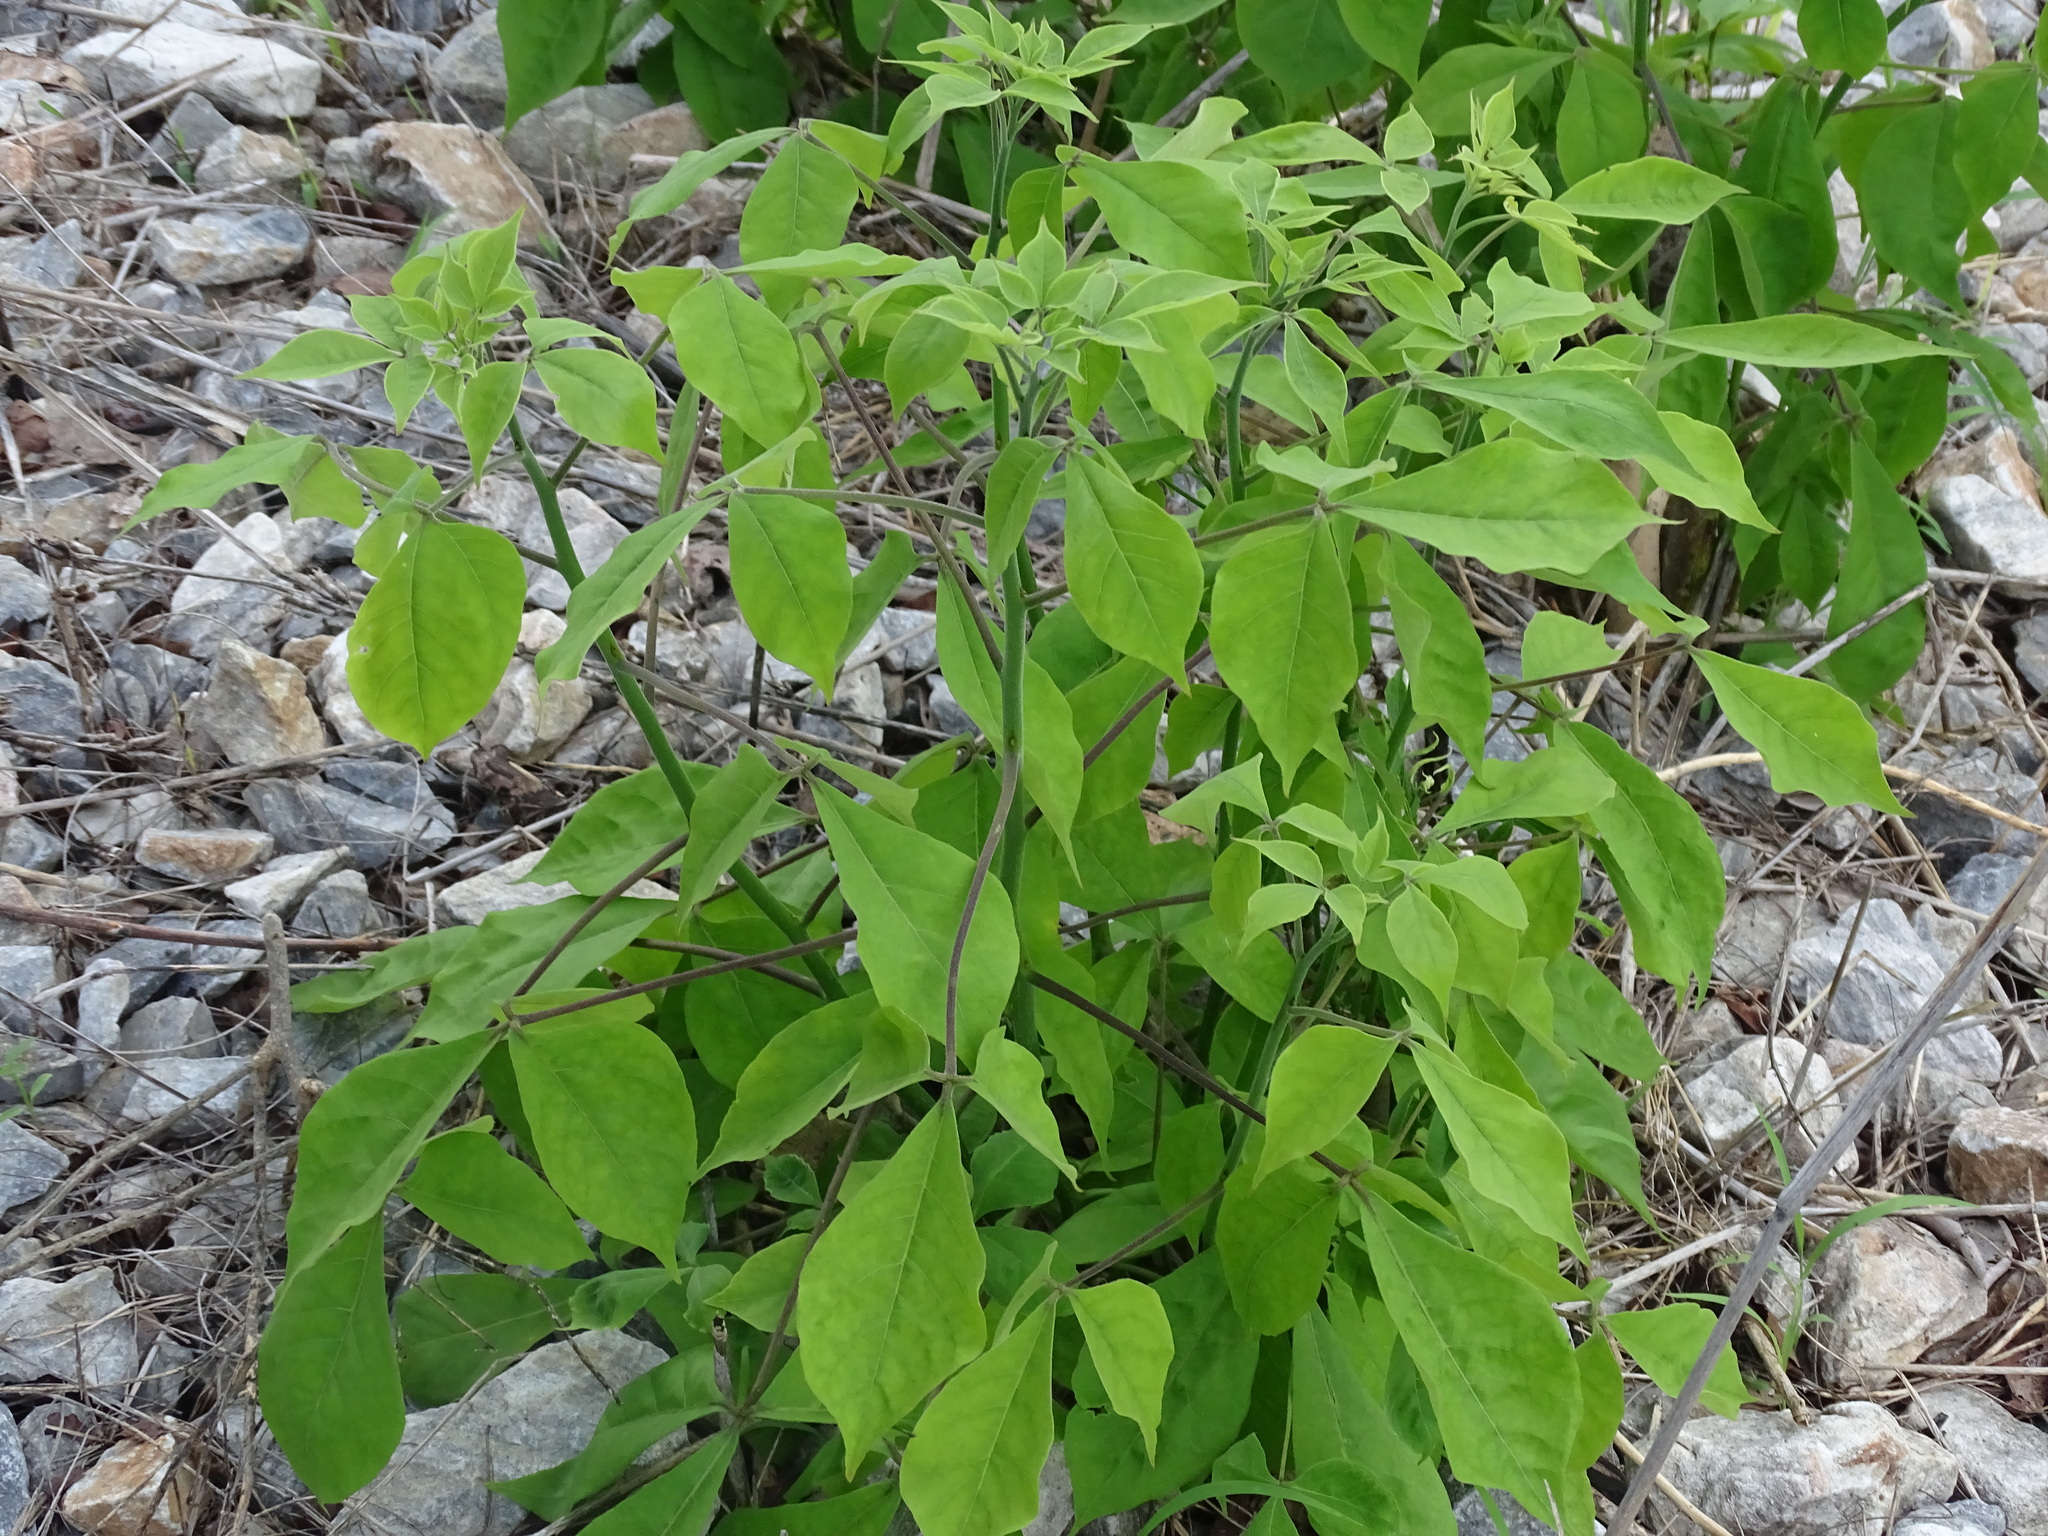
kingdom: Plantae
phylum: Tracheophyta
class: Magnoliopsida
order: Brassicales
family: Capparaceae
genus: Crateva
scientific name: Crateva tapia
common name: Garlic-pear
